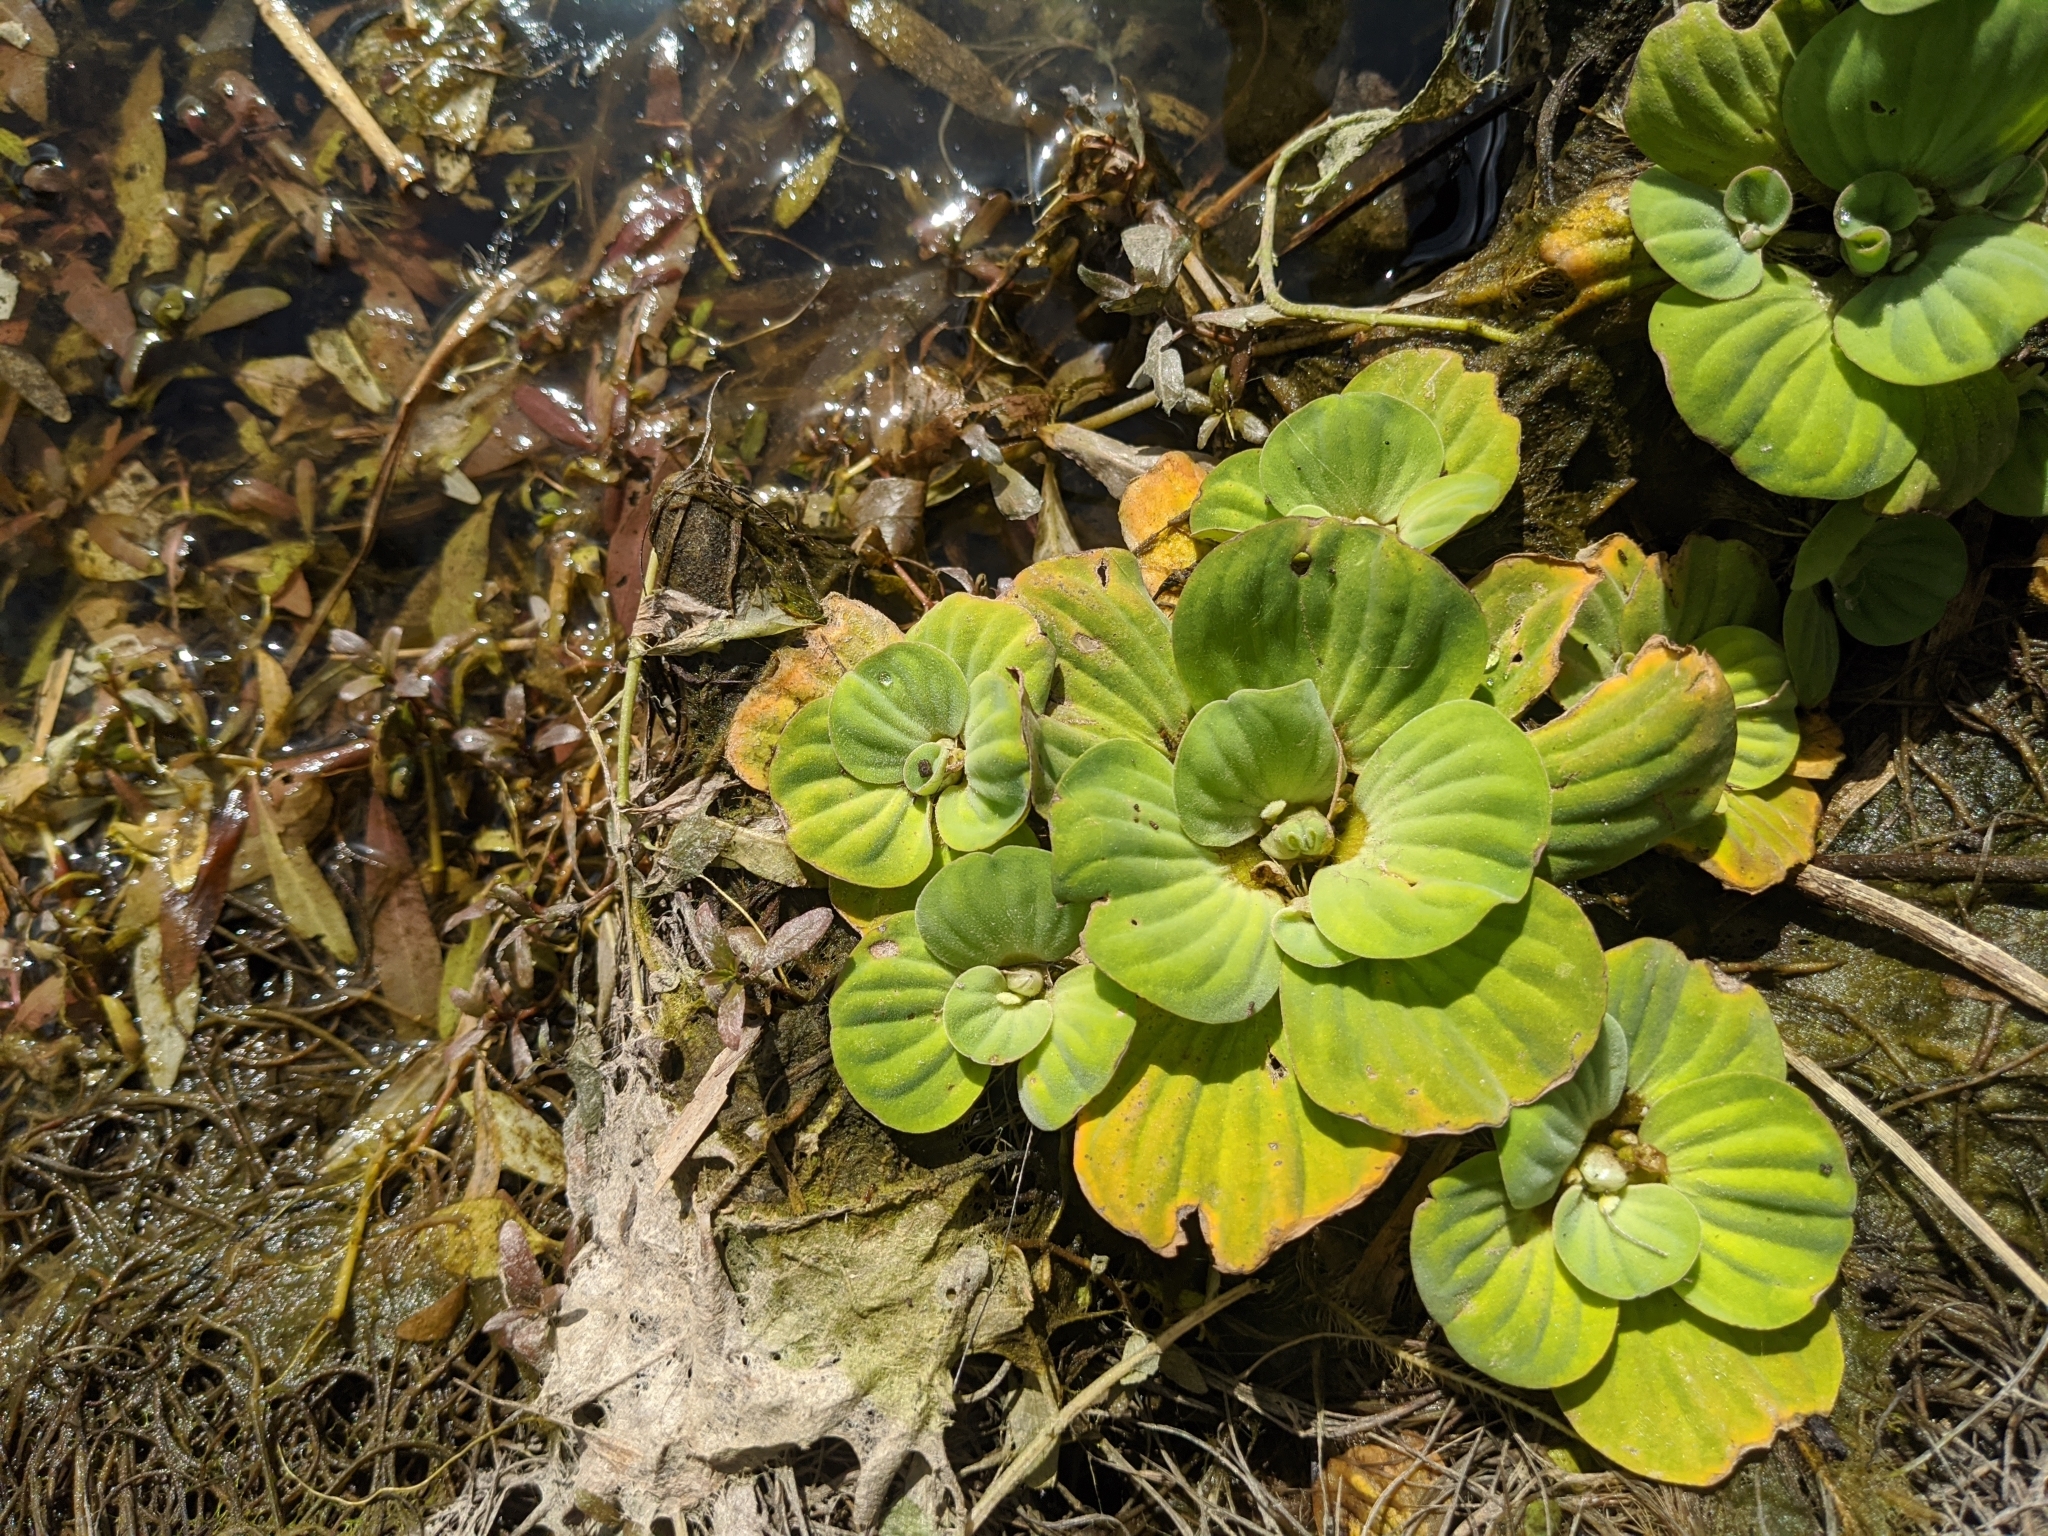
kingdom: Plantae
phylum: Tracheophyta
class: Liliopsida
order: Alismatales
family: Araceae
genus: Pistia
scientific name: Pistia stratiotes
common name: Water lettuce
